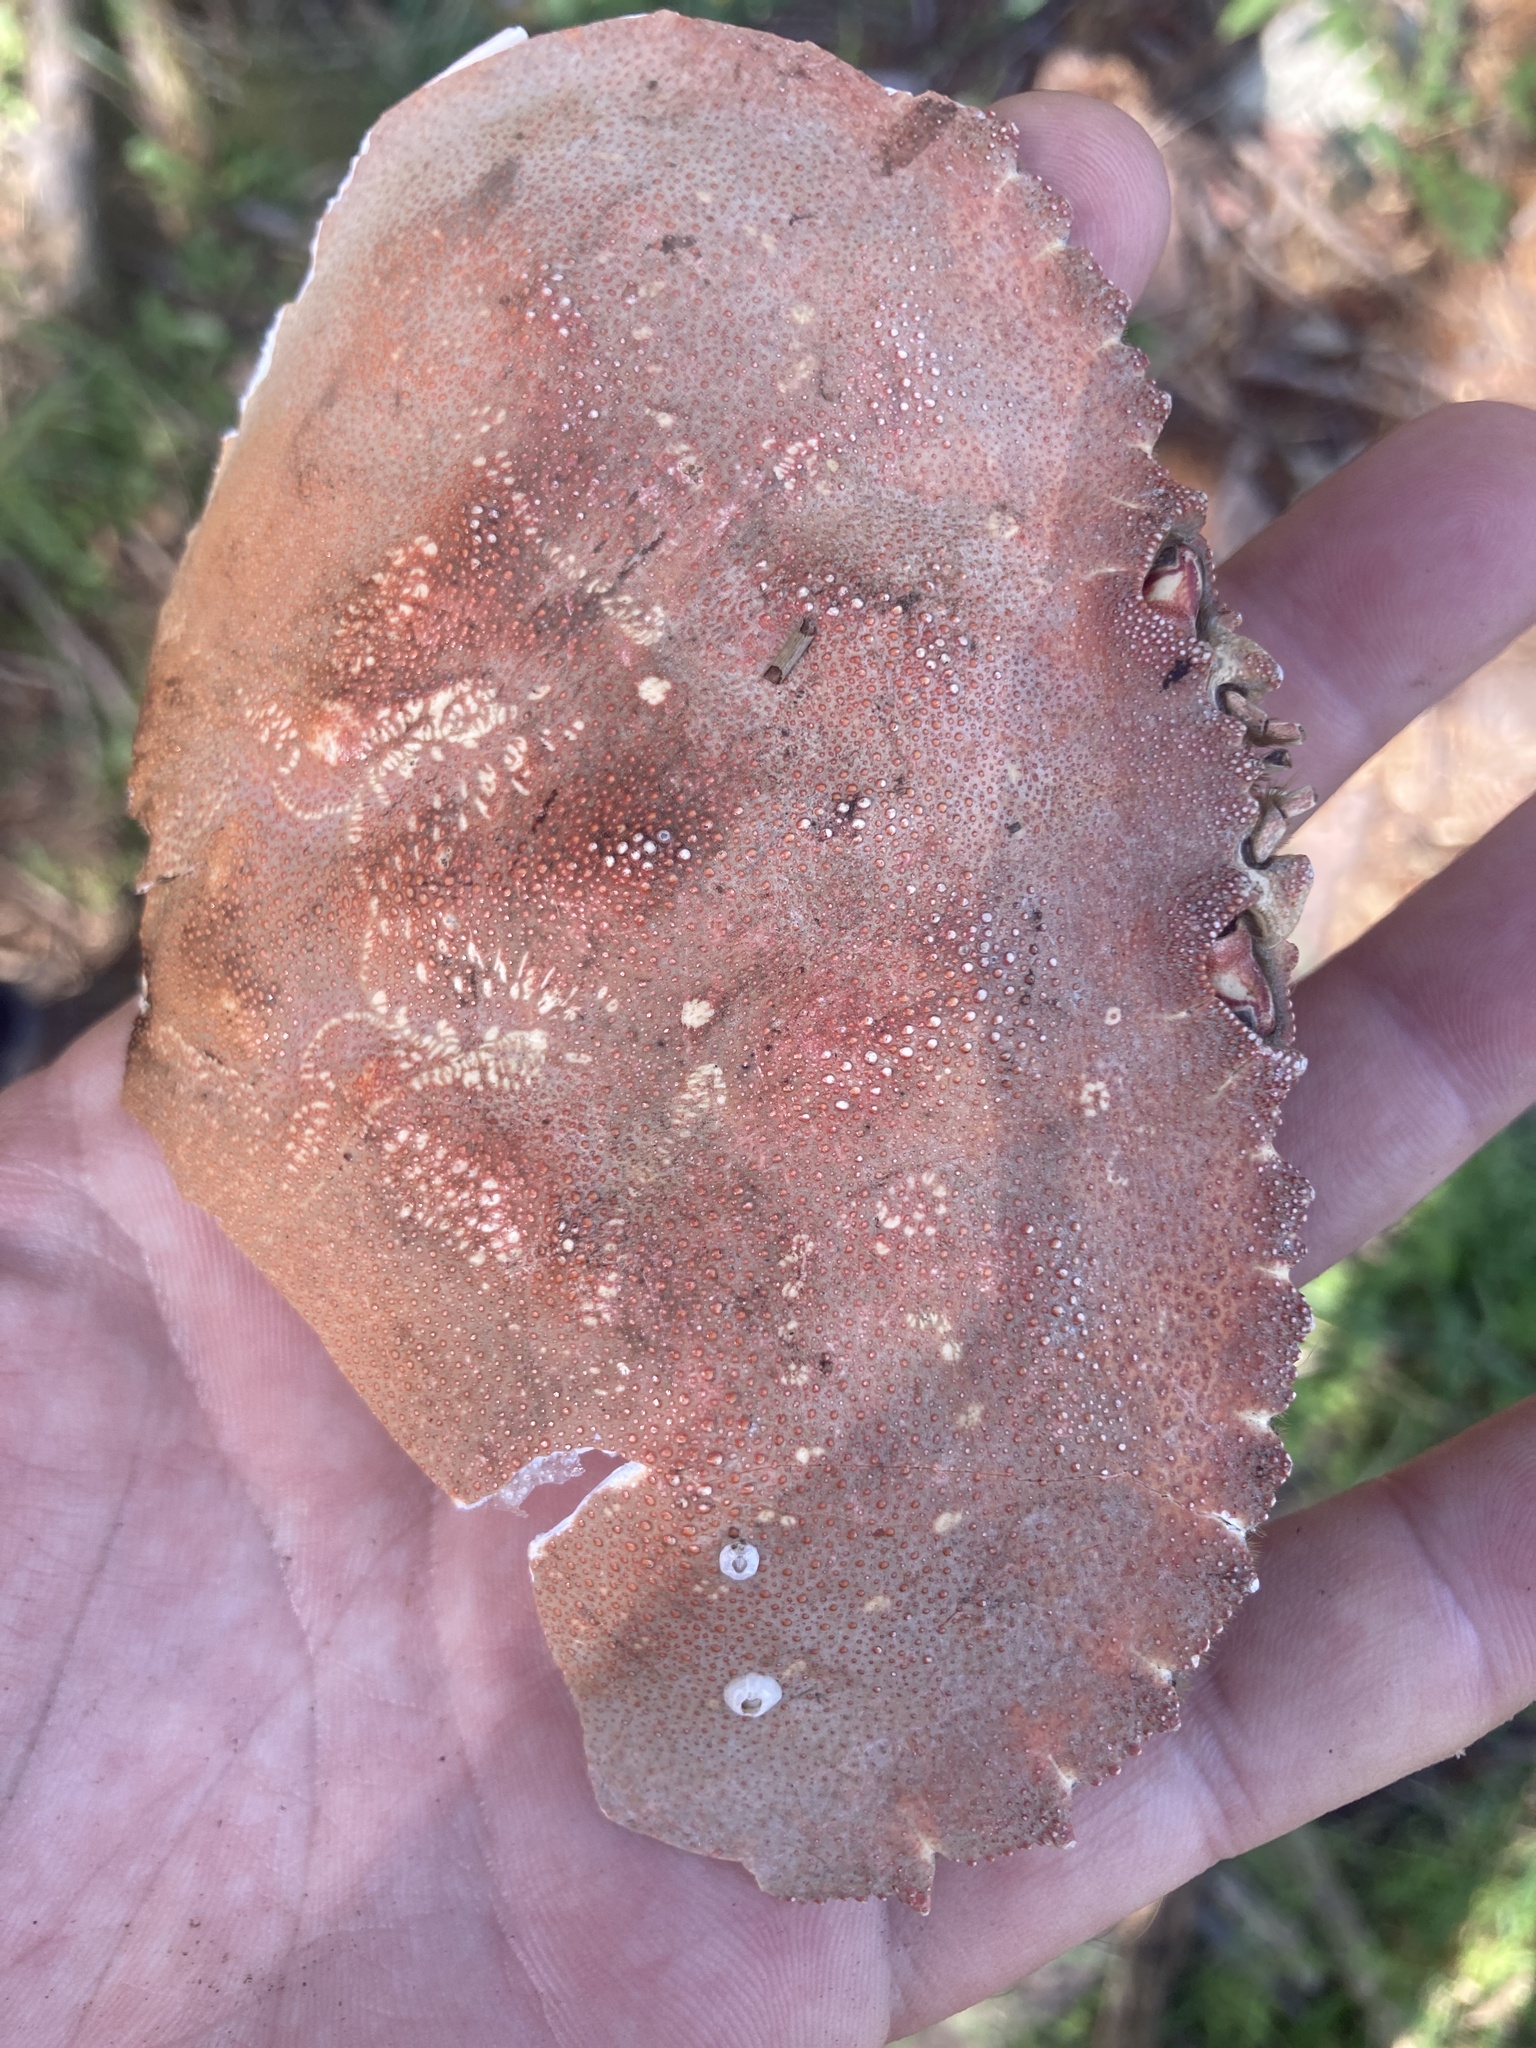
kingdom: Animalia
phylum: Arthropoda
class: Malacostraca
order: Decapoda
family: Cancridae
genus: Metacarcinus
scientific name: Metacarcinus magister
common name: Californian crab
